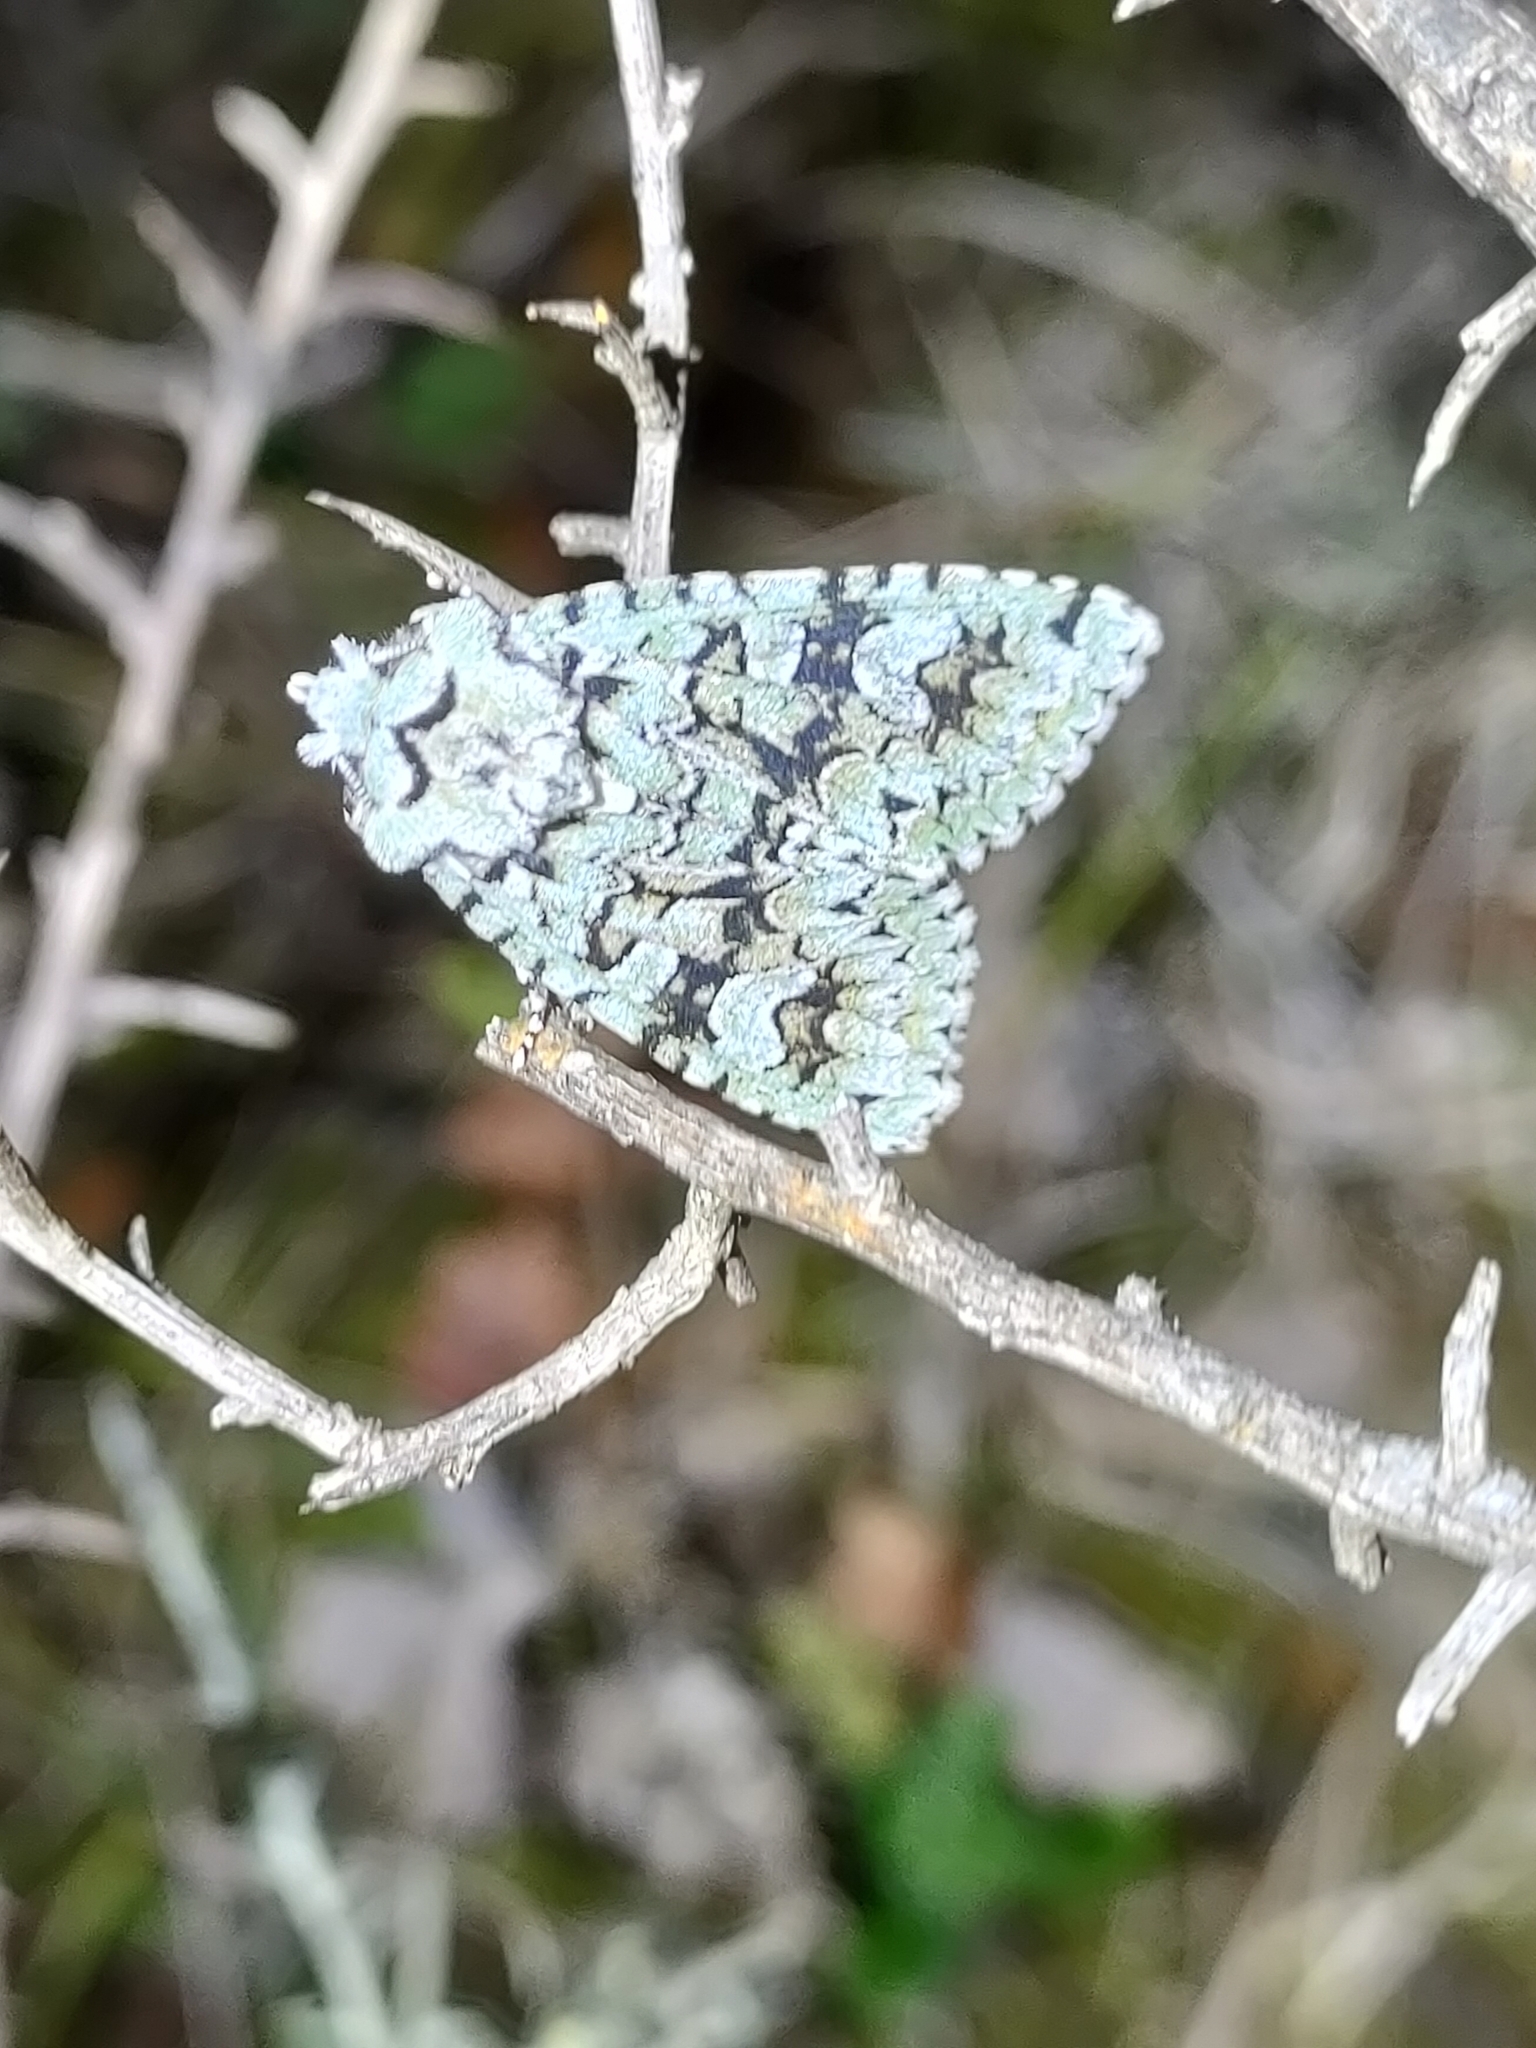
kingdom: Animalia
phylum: Arthropoda
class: Insecta
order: Lepidoptera
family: Noctuidae
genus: Griposia
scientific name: Griposia aprilina
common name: Merveille du jour
